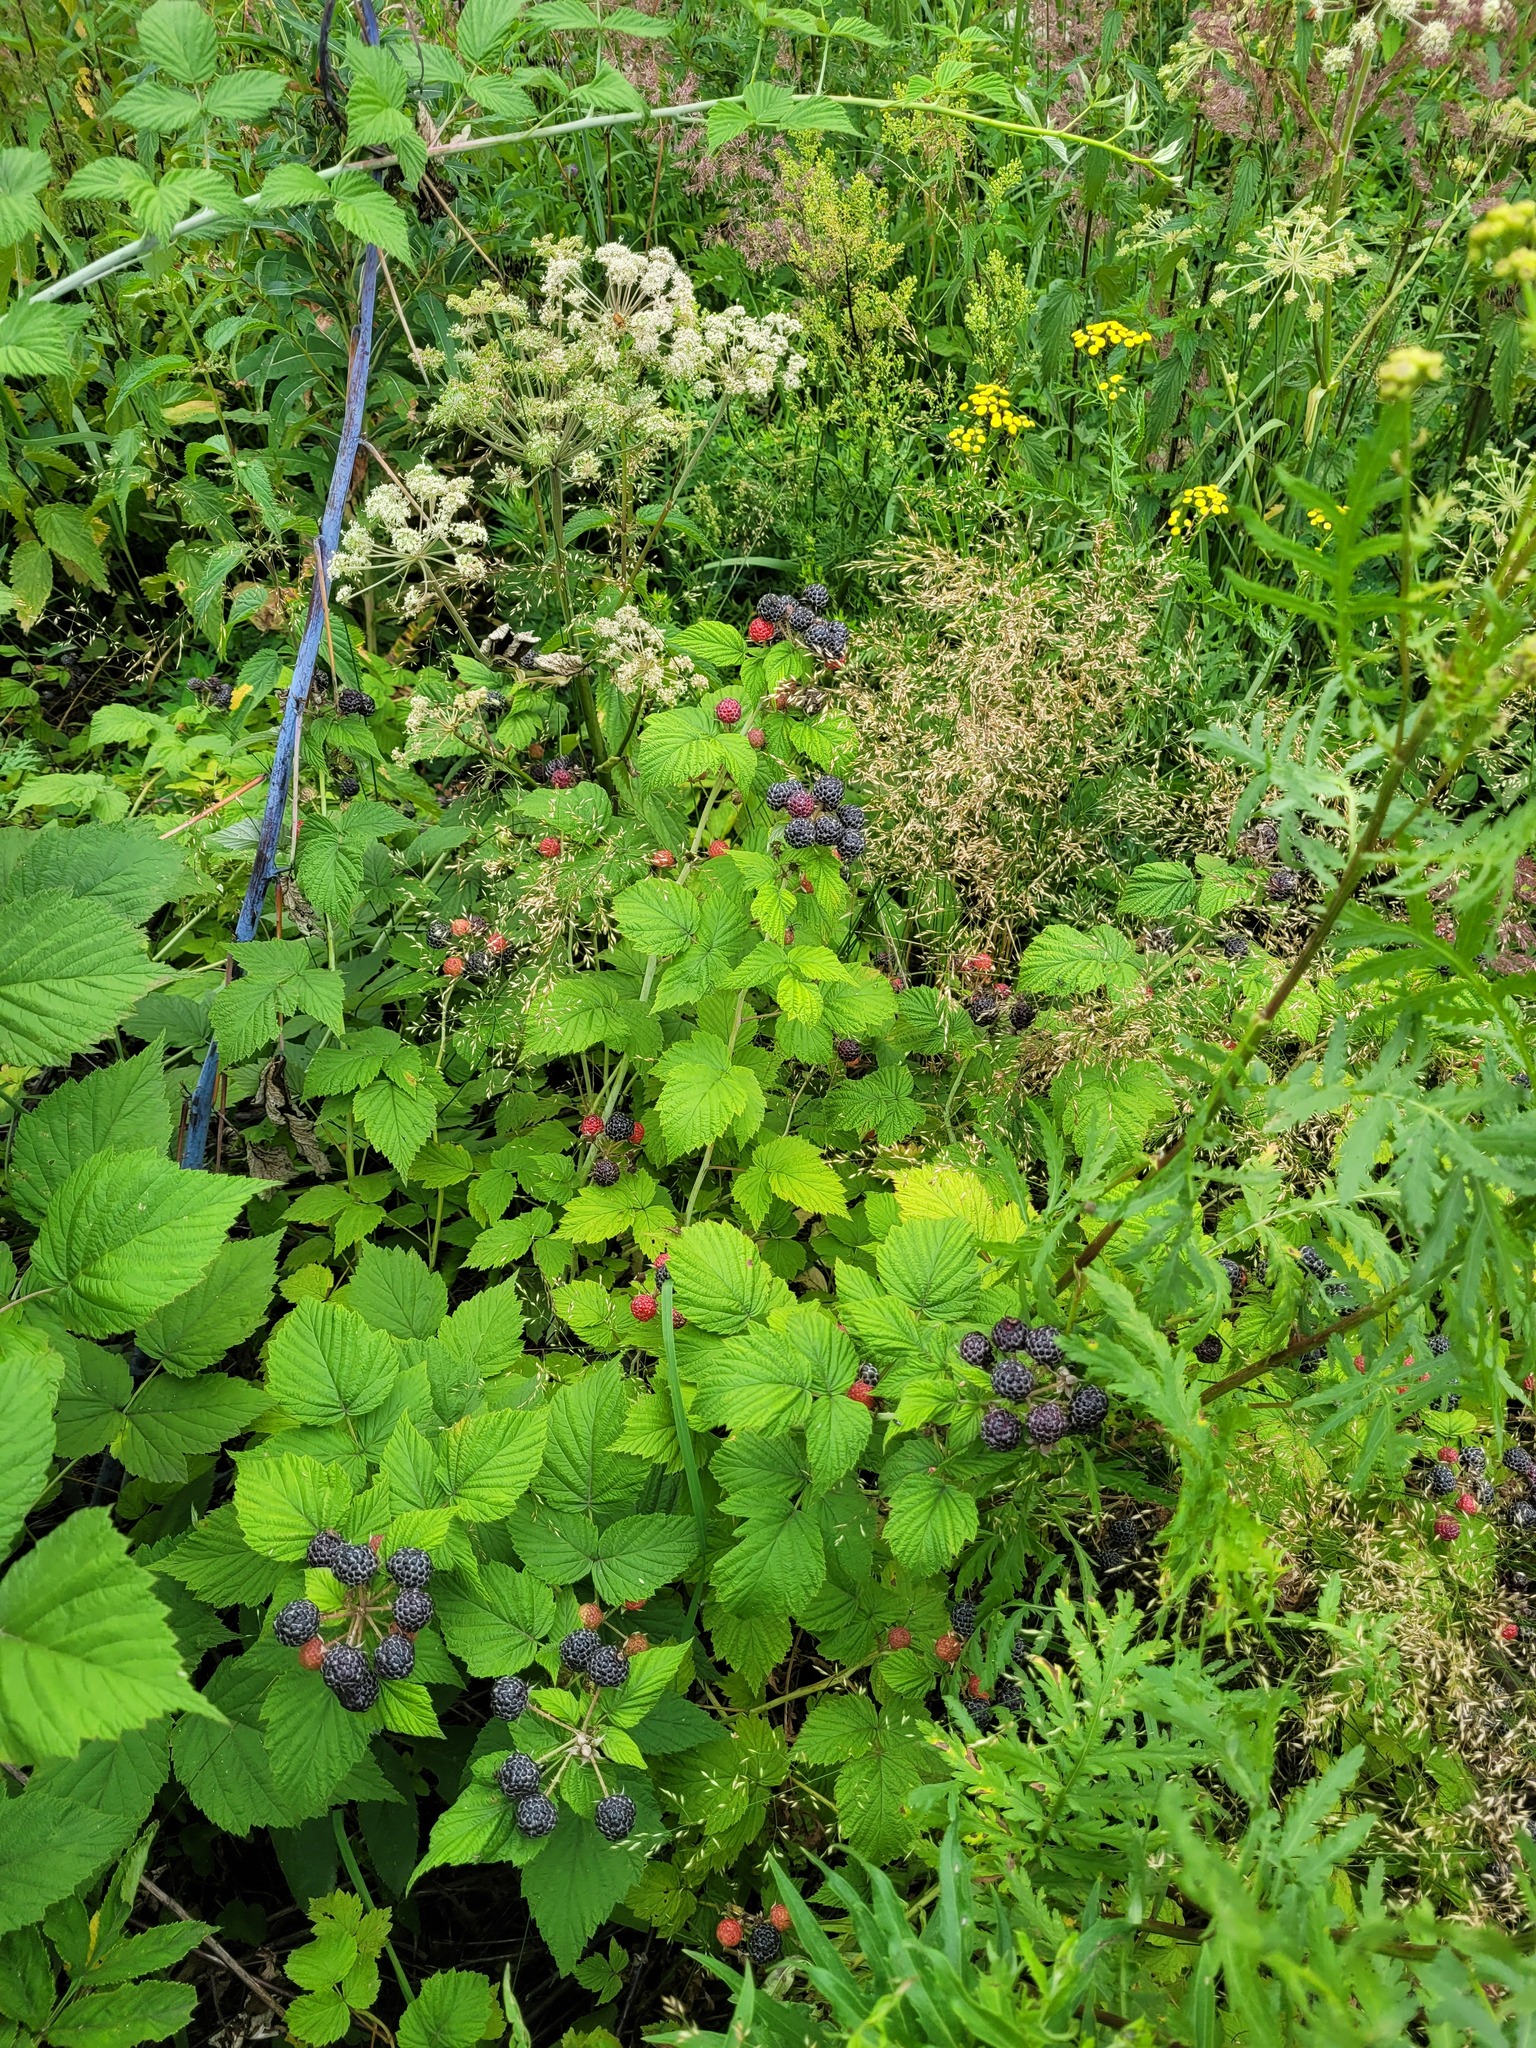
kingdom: Plantae
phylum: Tracheophyta
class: Magnoliopsida
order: Rosales
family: Rosaceae
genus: Rubus
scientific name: Rubus occidentalis
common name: Black raspberry
